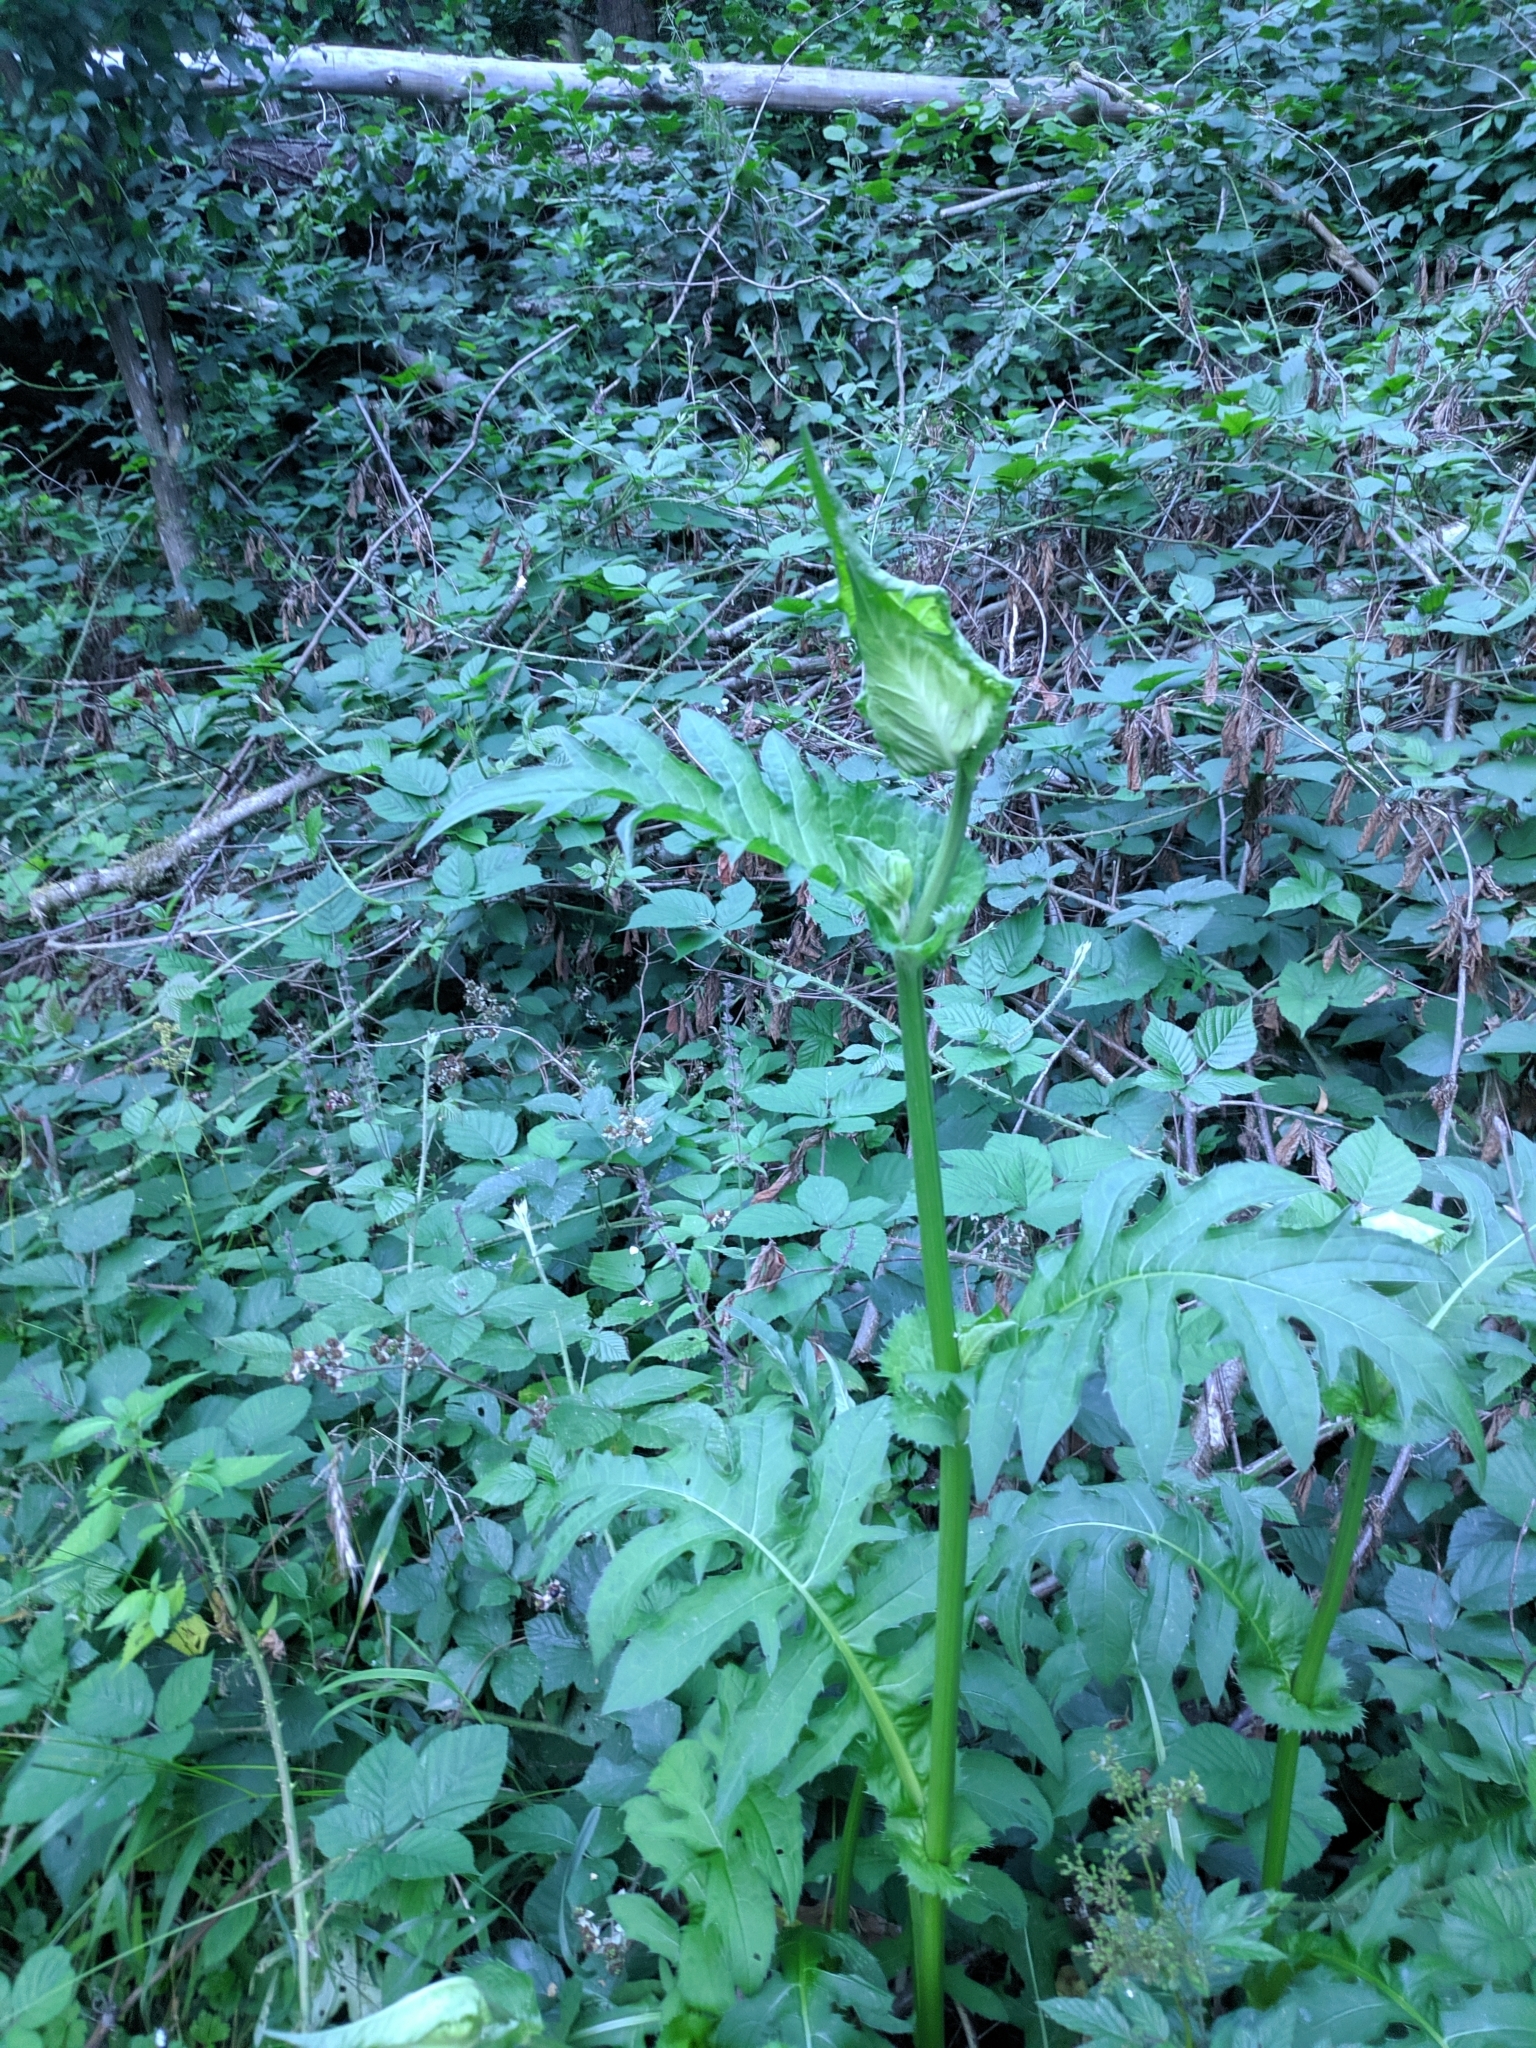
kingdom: Plantae
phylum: Tracheophyta
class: Magnoliopsida
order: Asterales
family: Asteraceae
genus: Cirsium
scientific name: Cirsium oleraceum
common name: Cabbage thistle
